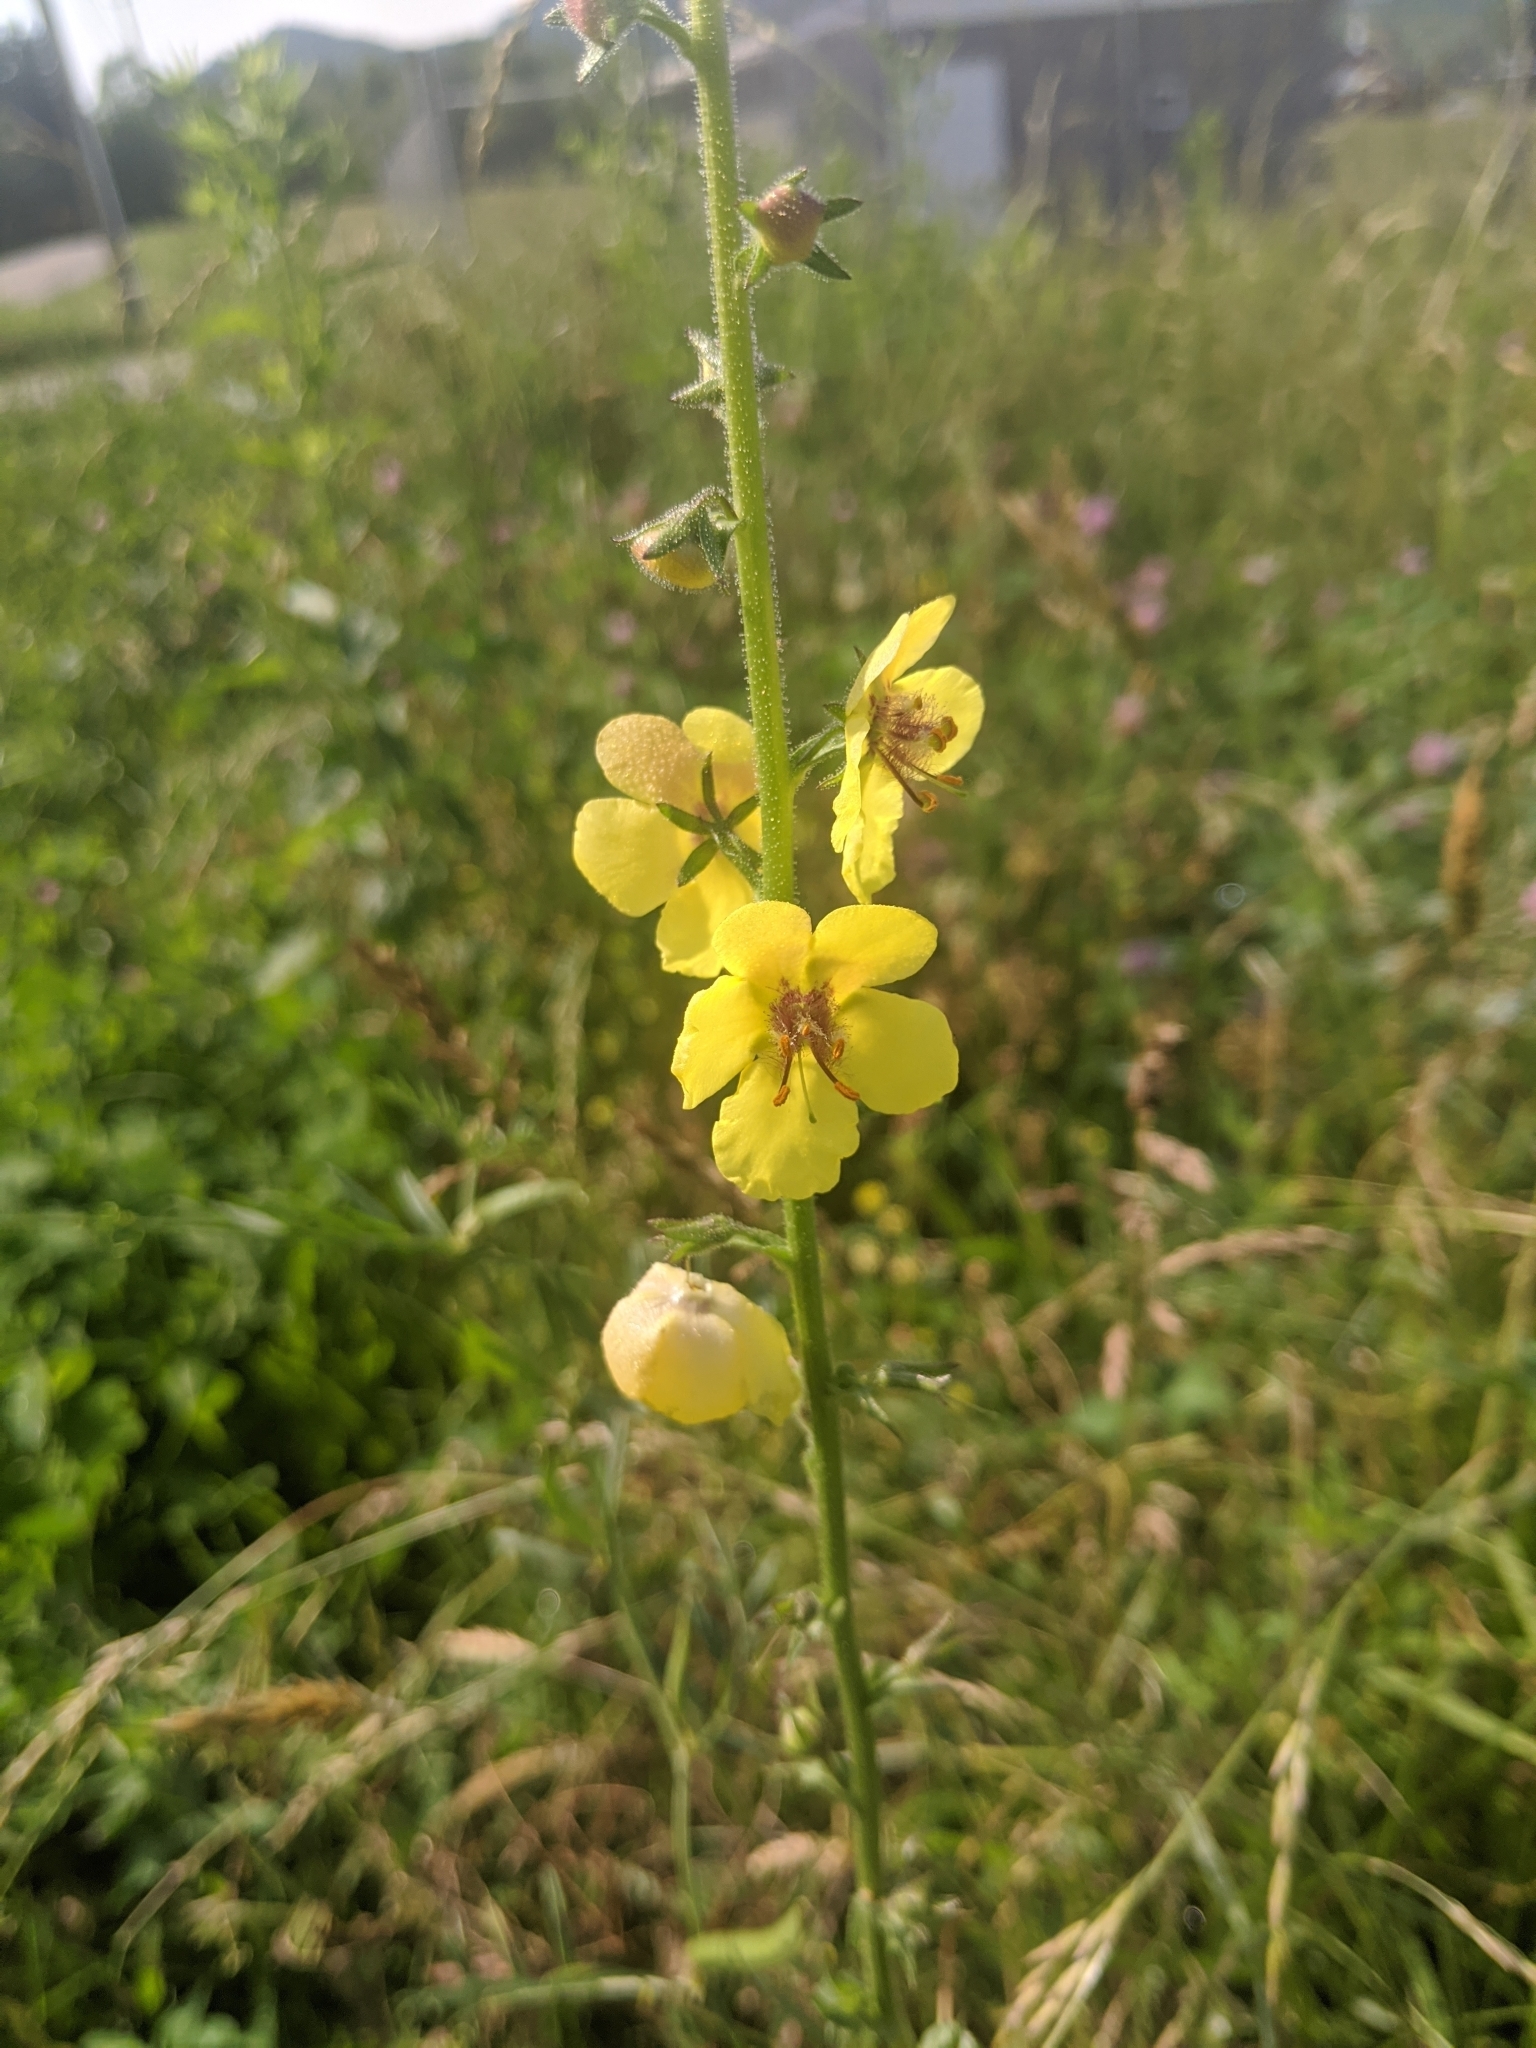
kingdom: Plantae
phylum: Tracheophyta
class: Magnoliopsida
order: Lamiales
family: Scrophulariaceae
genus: Verbascum
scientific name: Verbascum blattaria
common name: Moth mullein
